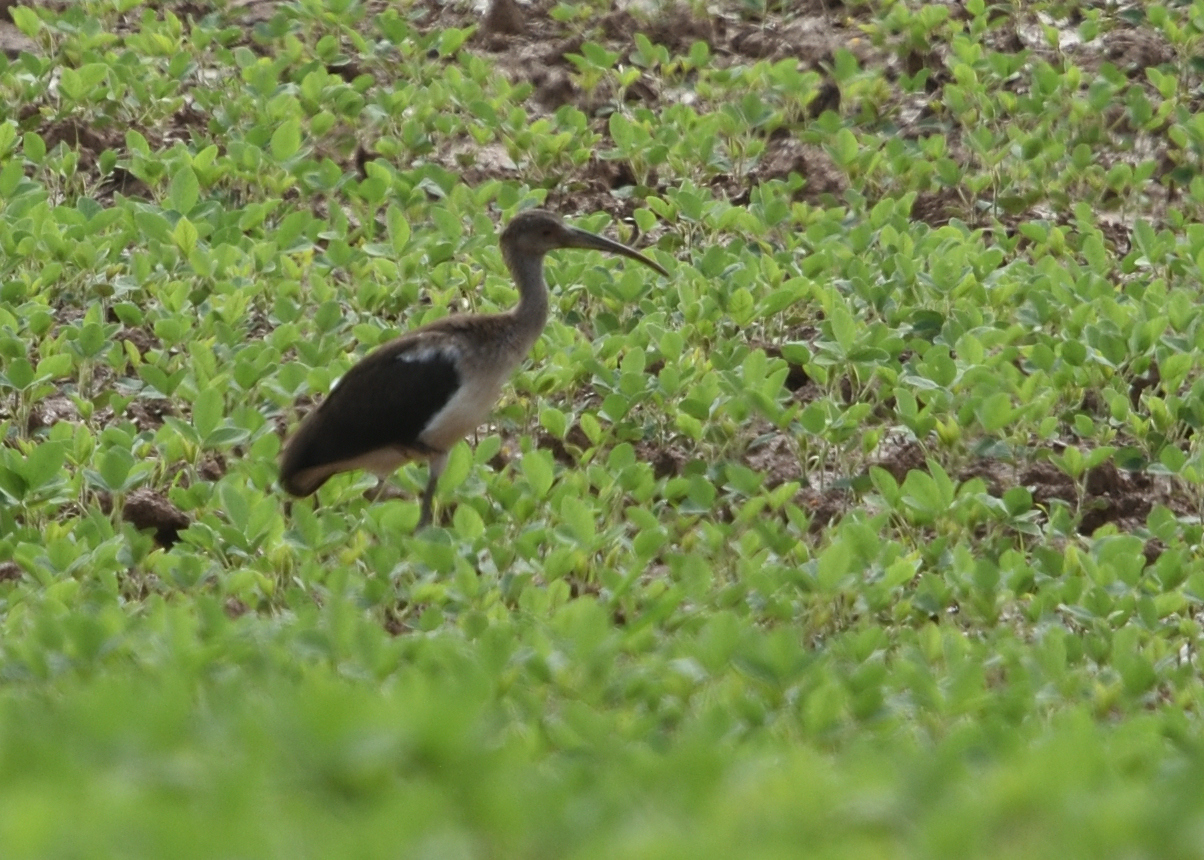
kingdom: Animalia
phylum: Chordata
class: Aves
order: Pelecaniformes
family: Threskiornithidae
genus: Eudocimus
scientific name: Eudocimus albus
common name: White ibis
